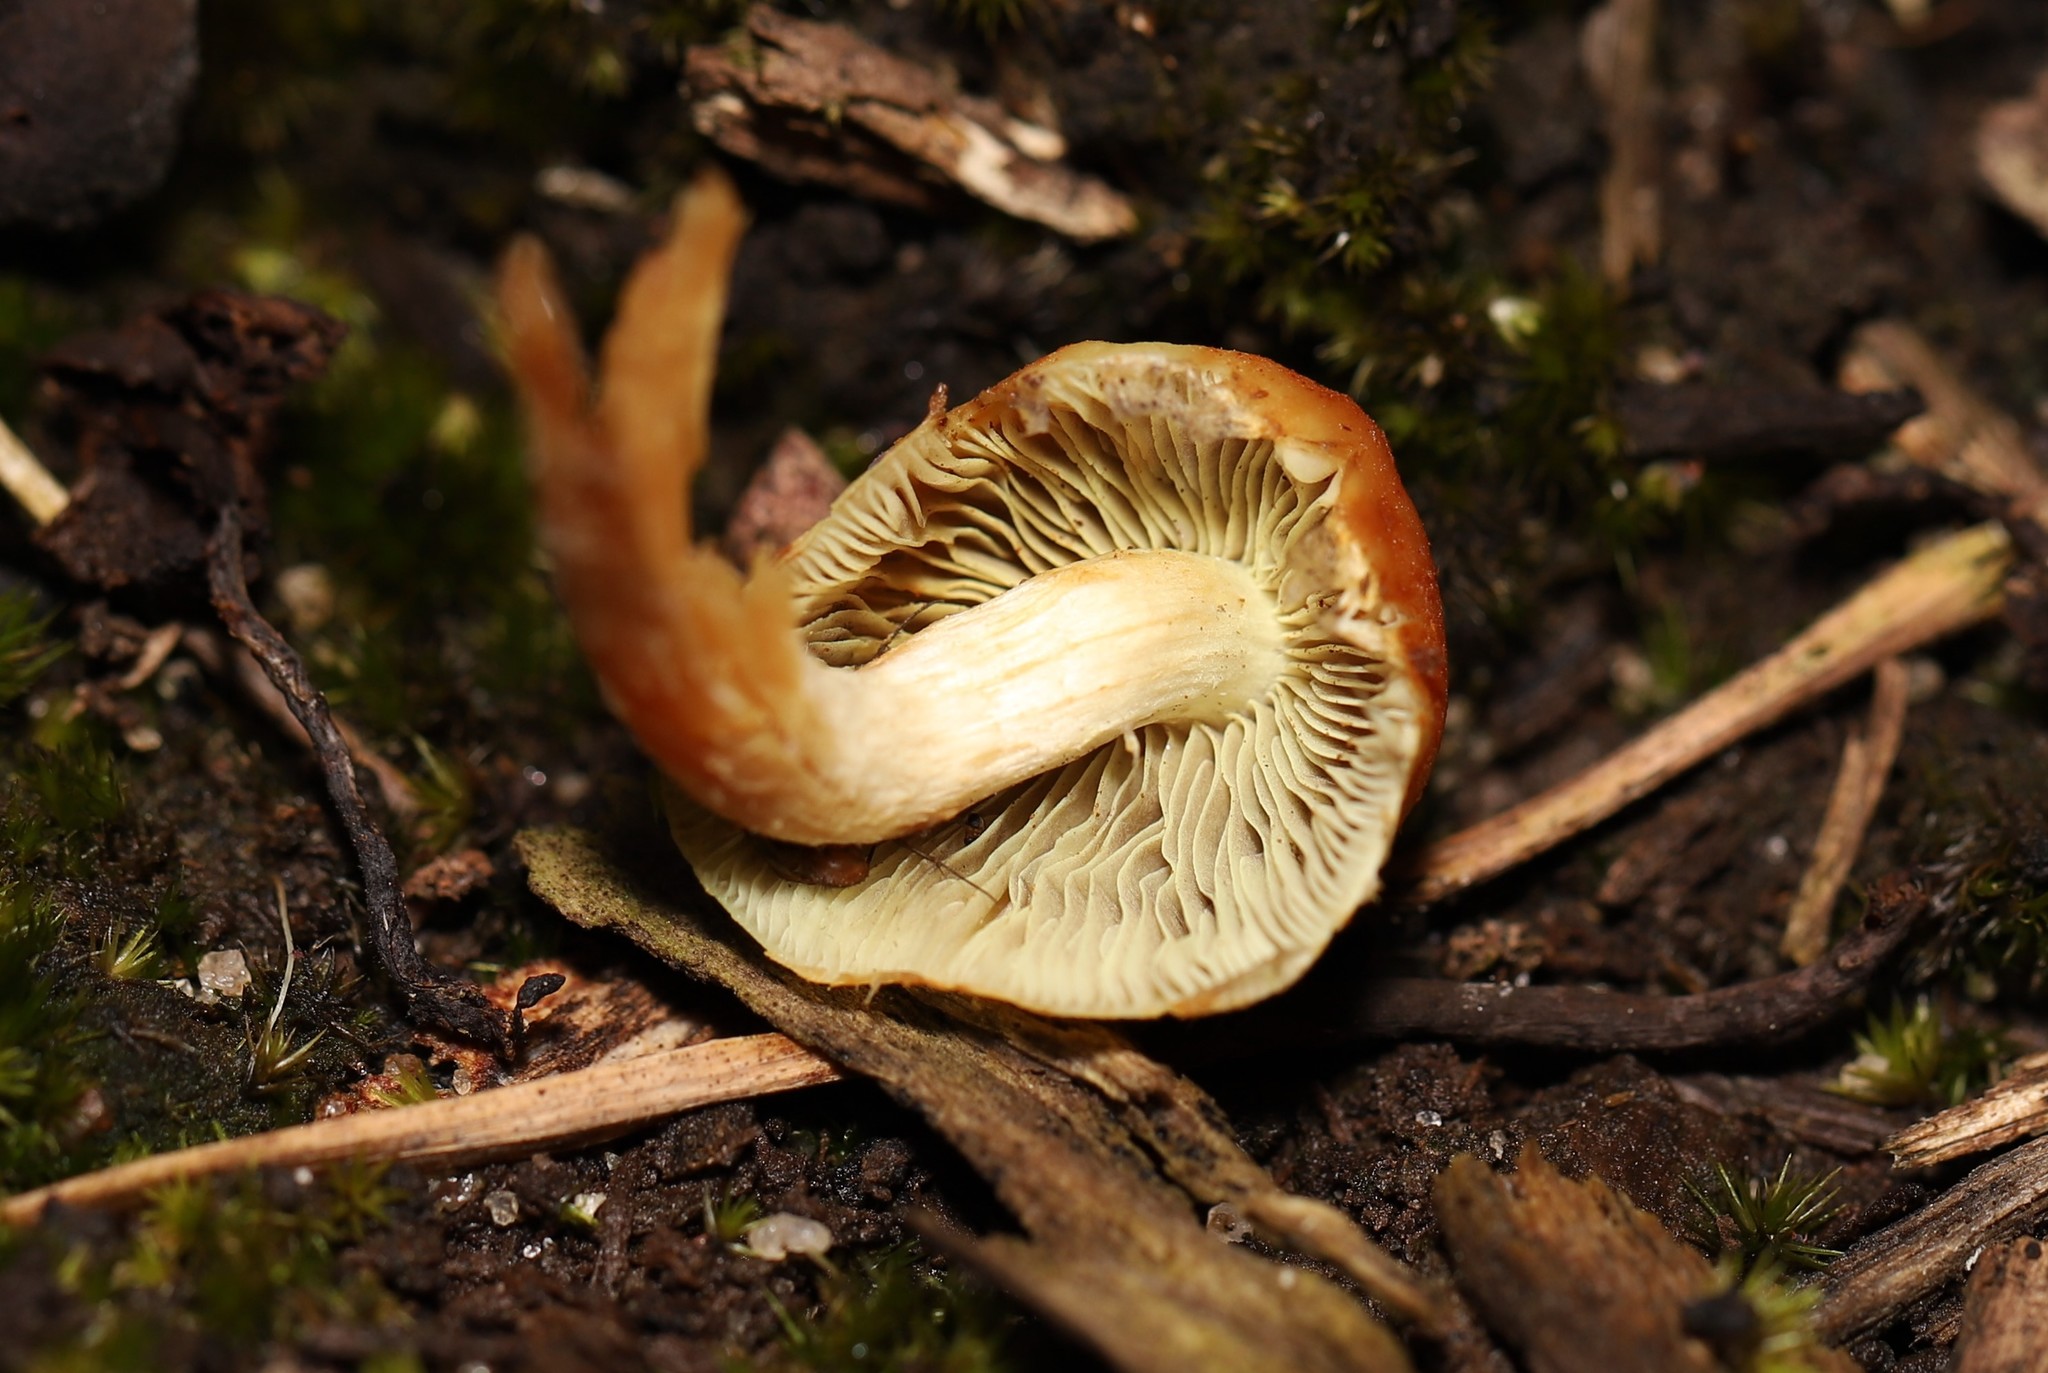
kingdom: Fungi
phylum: Basidiomycota
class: Agaricomycetes
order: Agaricales
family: Strophariaceae
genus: Hypholoma
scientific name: Hypholoma fasciculare
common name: Sulphur tuft
